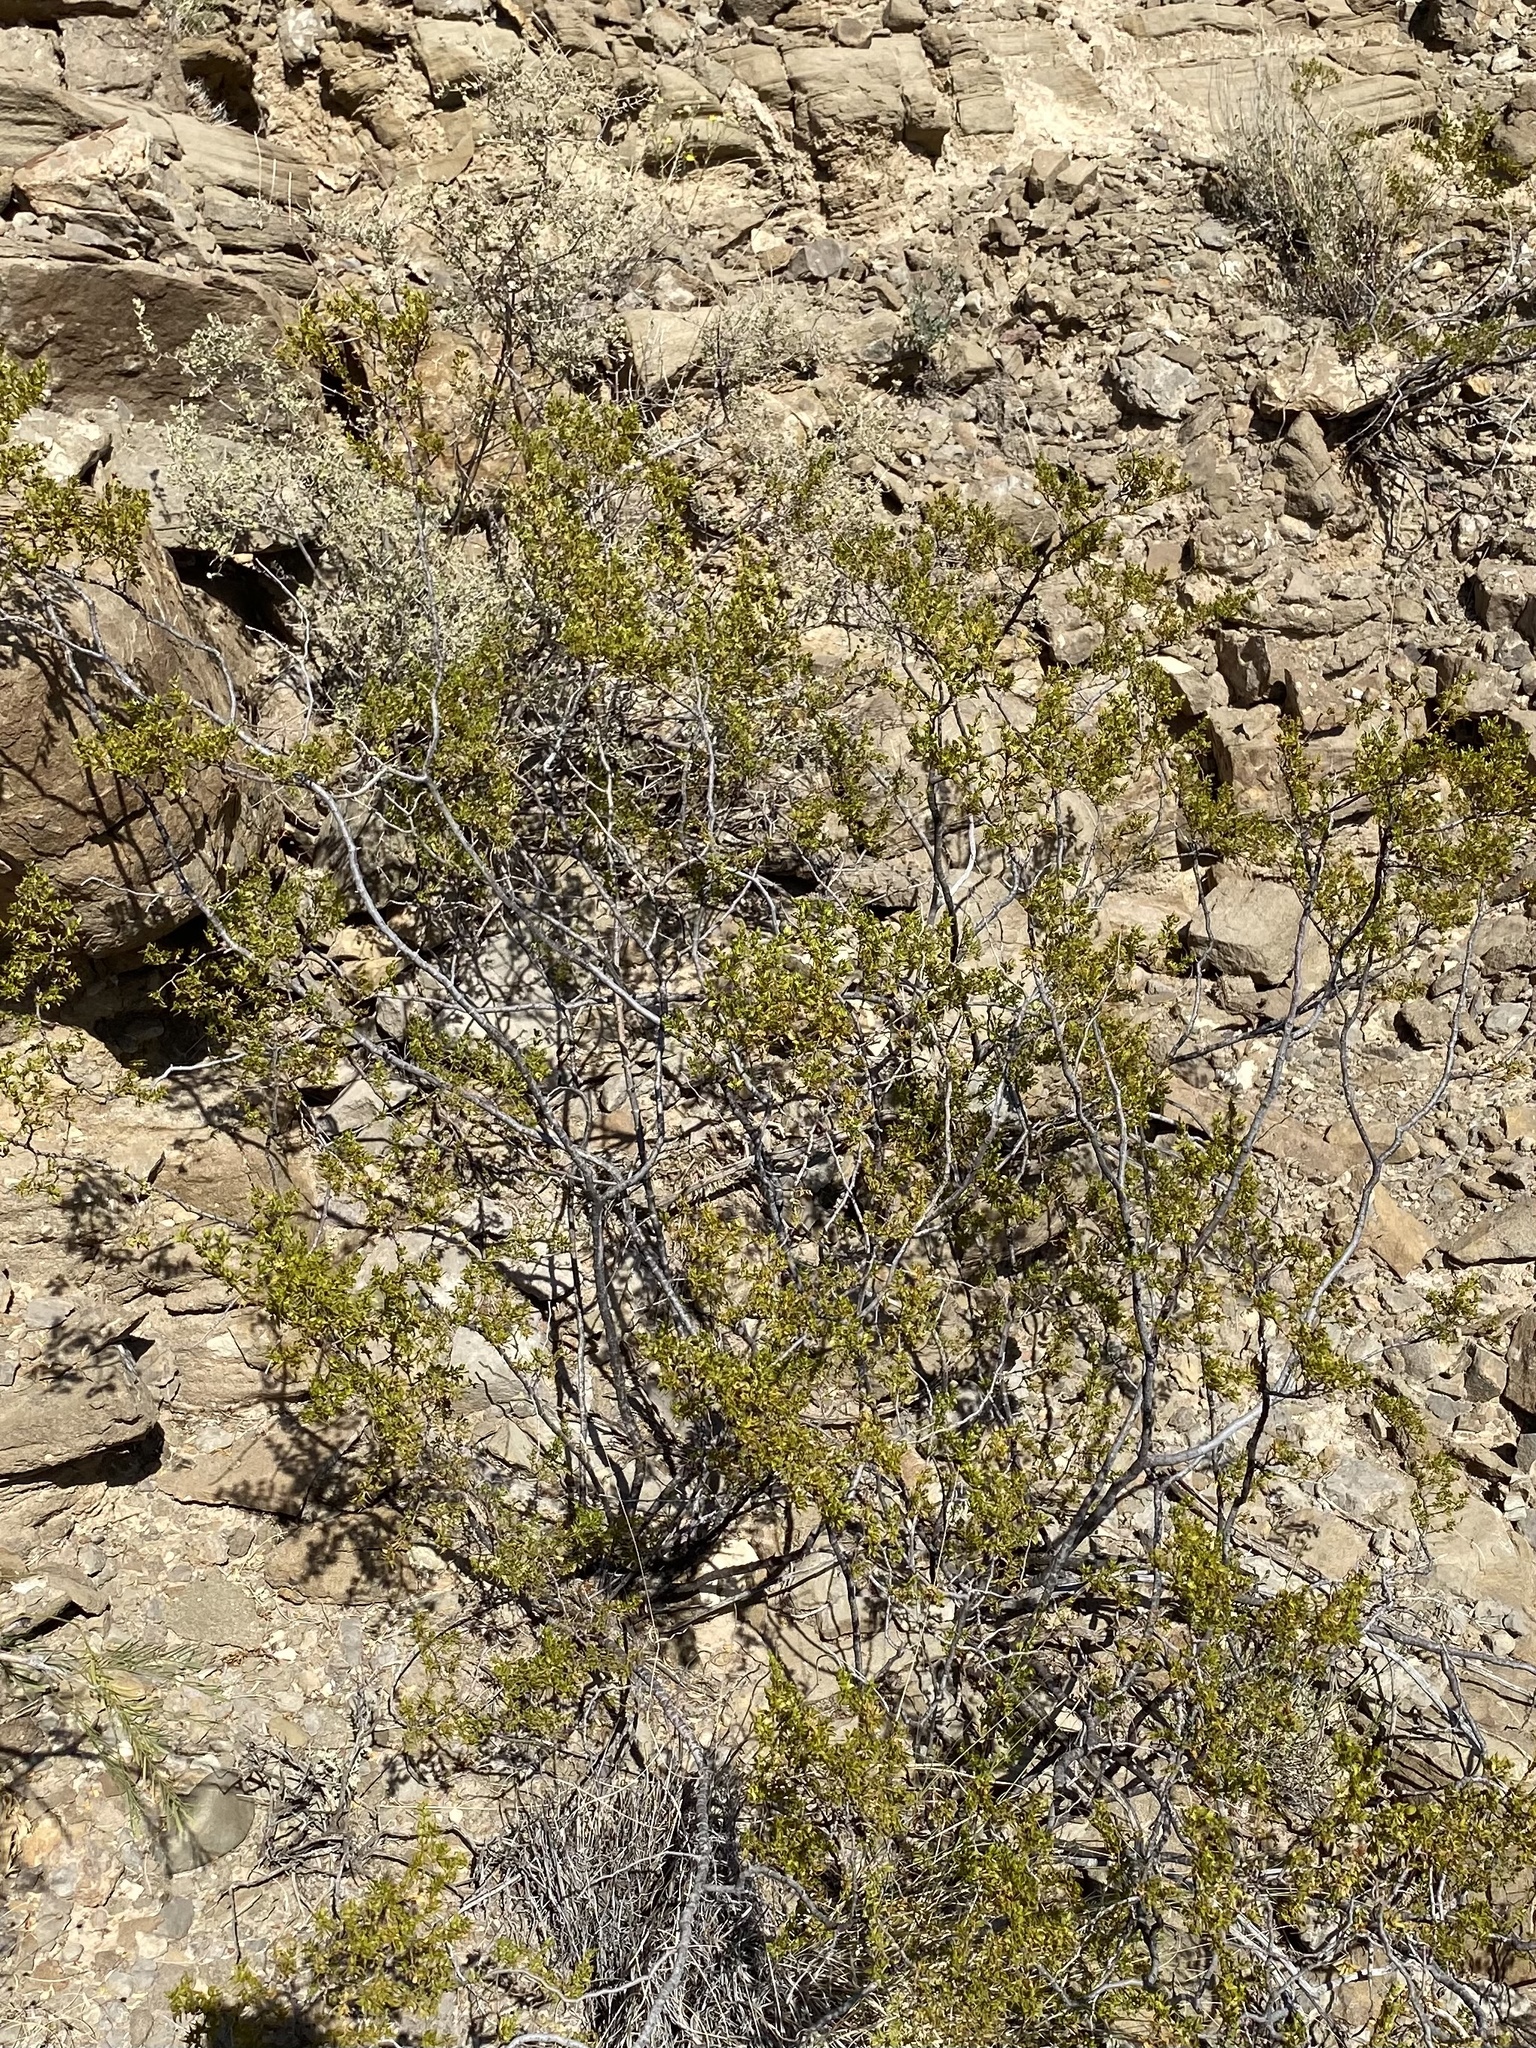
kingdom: Plantae
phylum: Tracheophyta
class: Magnoliopsida
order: Zygophyllales
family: Zygophyllaceae
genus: Larrea
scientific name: Larrea tridentata
